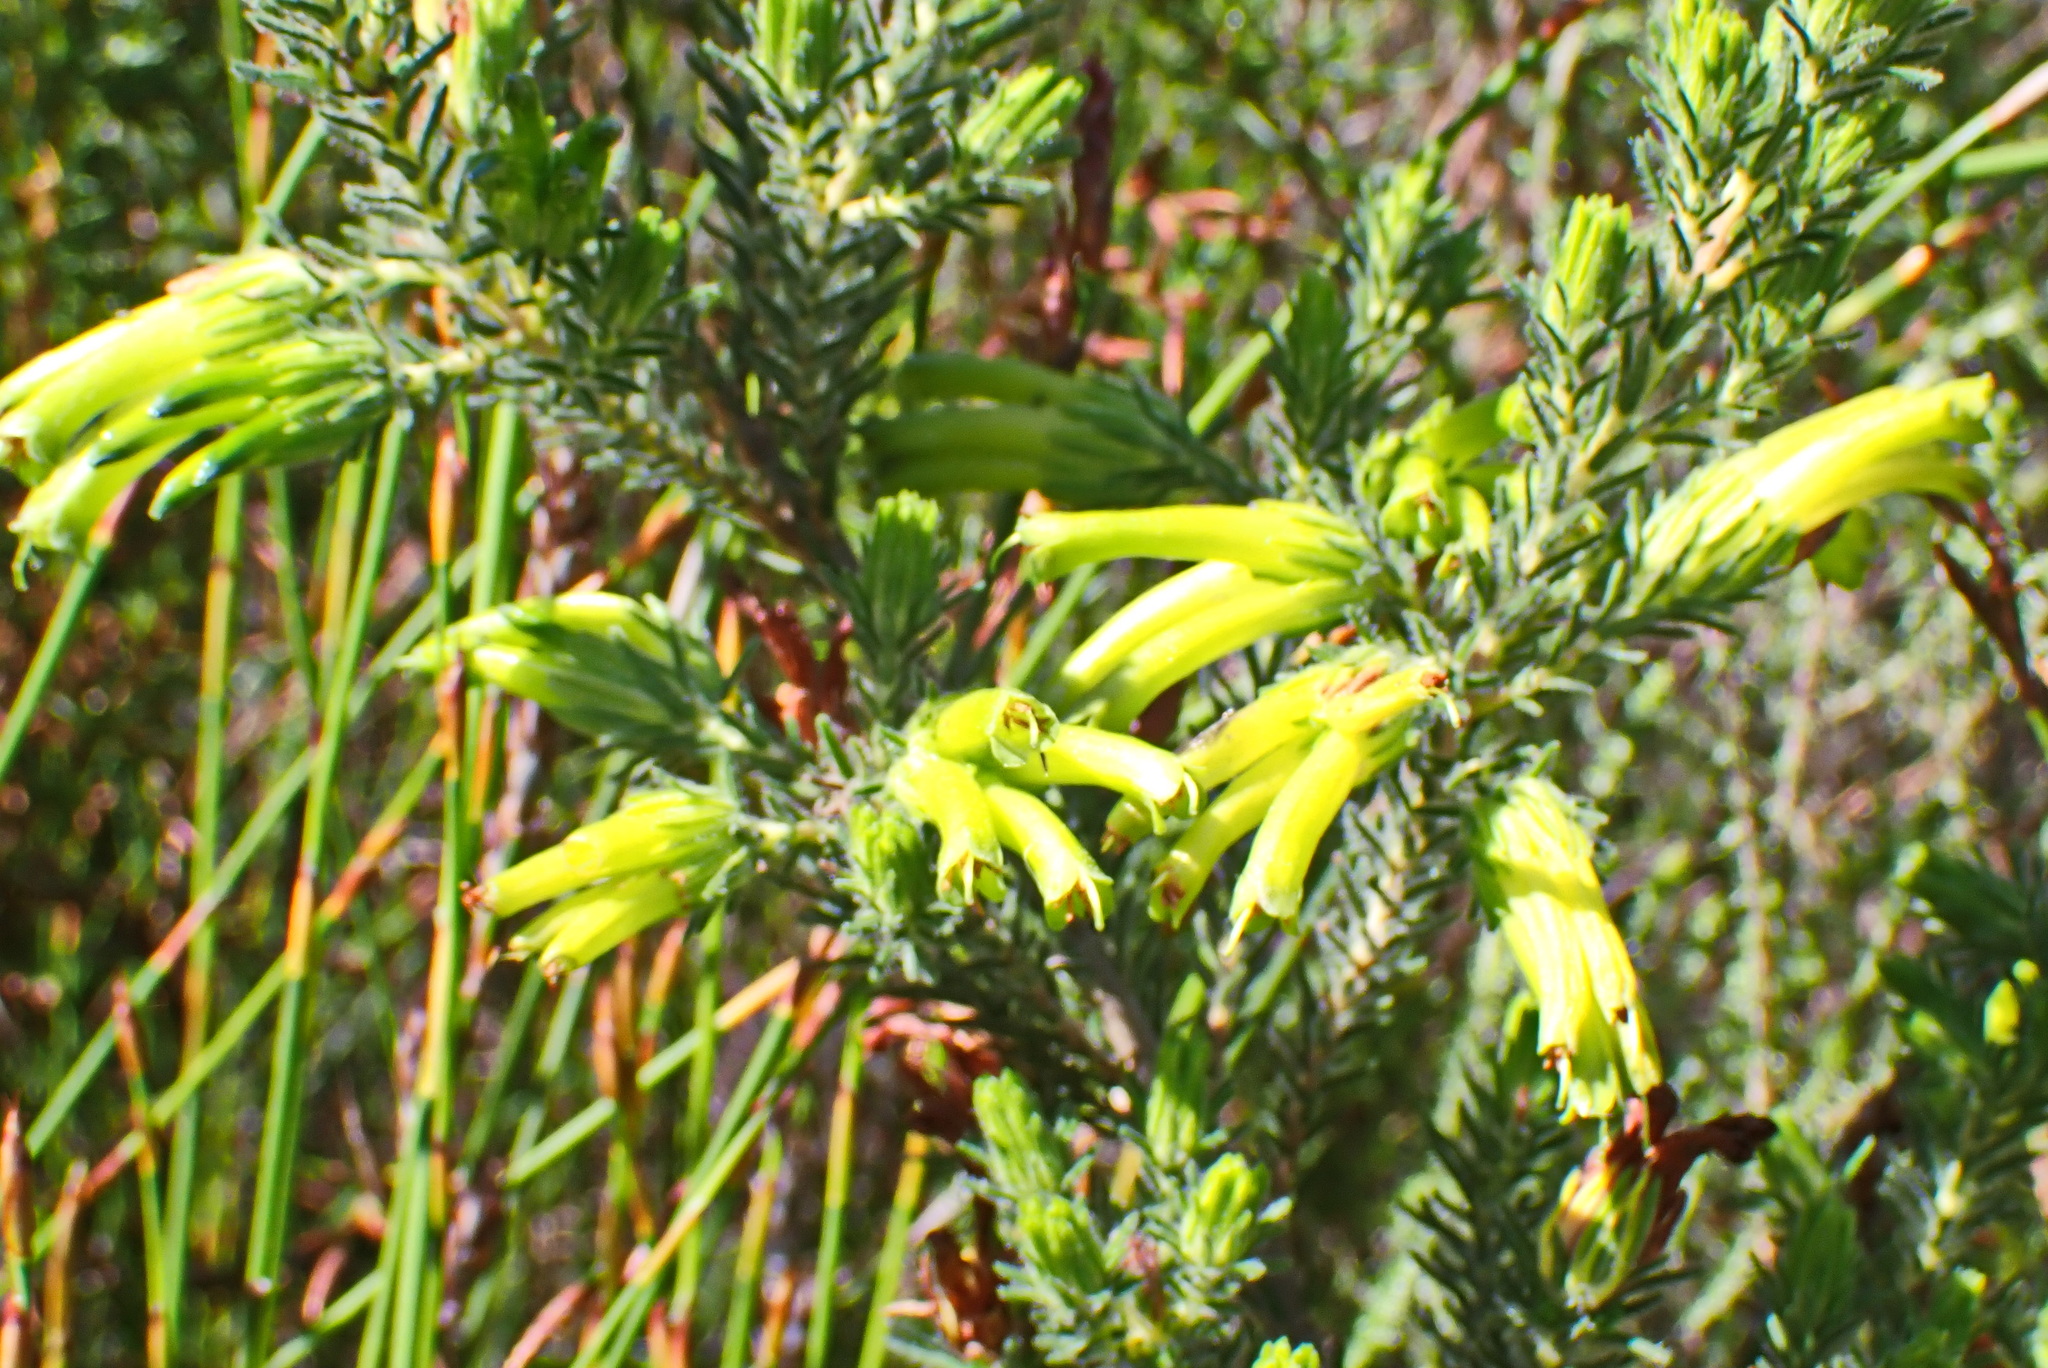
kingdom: Plantae
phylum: Tracheophyta
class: Magnoliopsida
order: Ericales
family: Ericaceae
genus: Erica
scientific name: Erica unicolor
